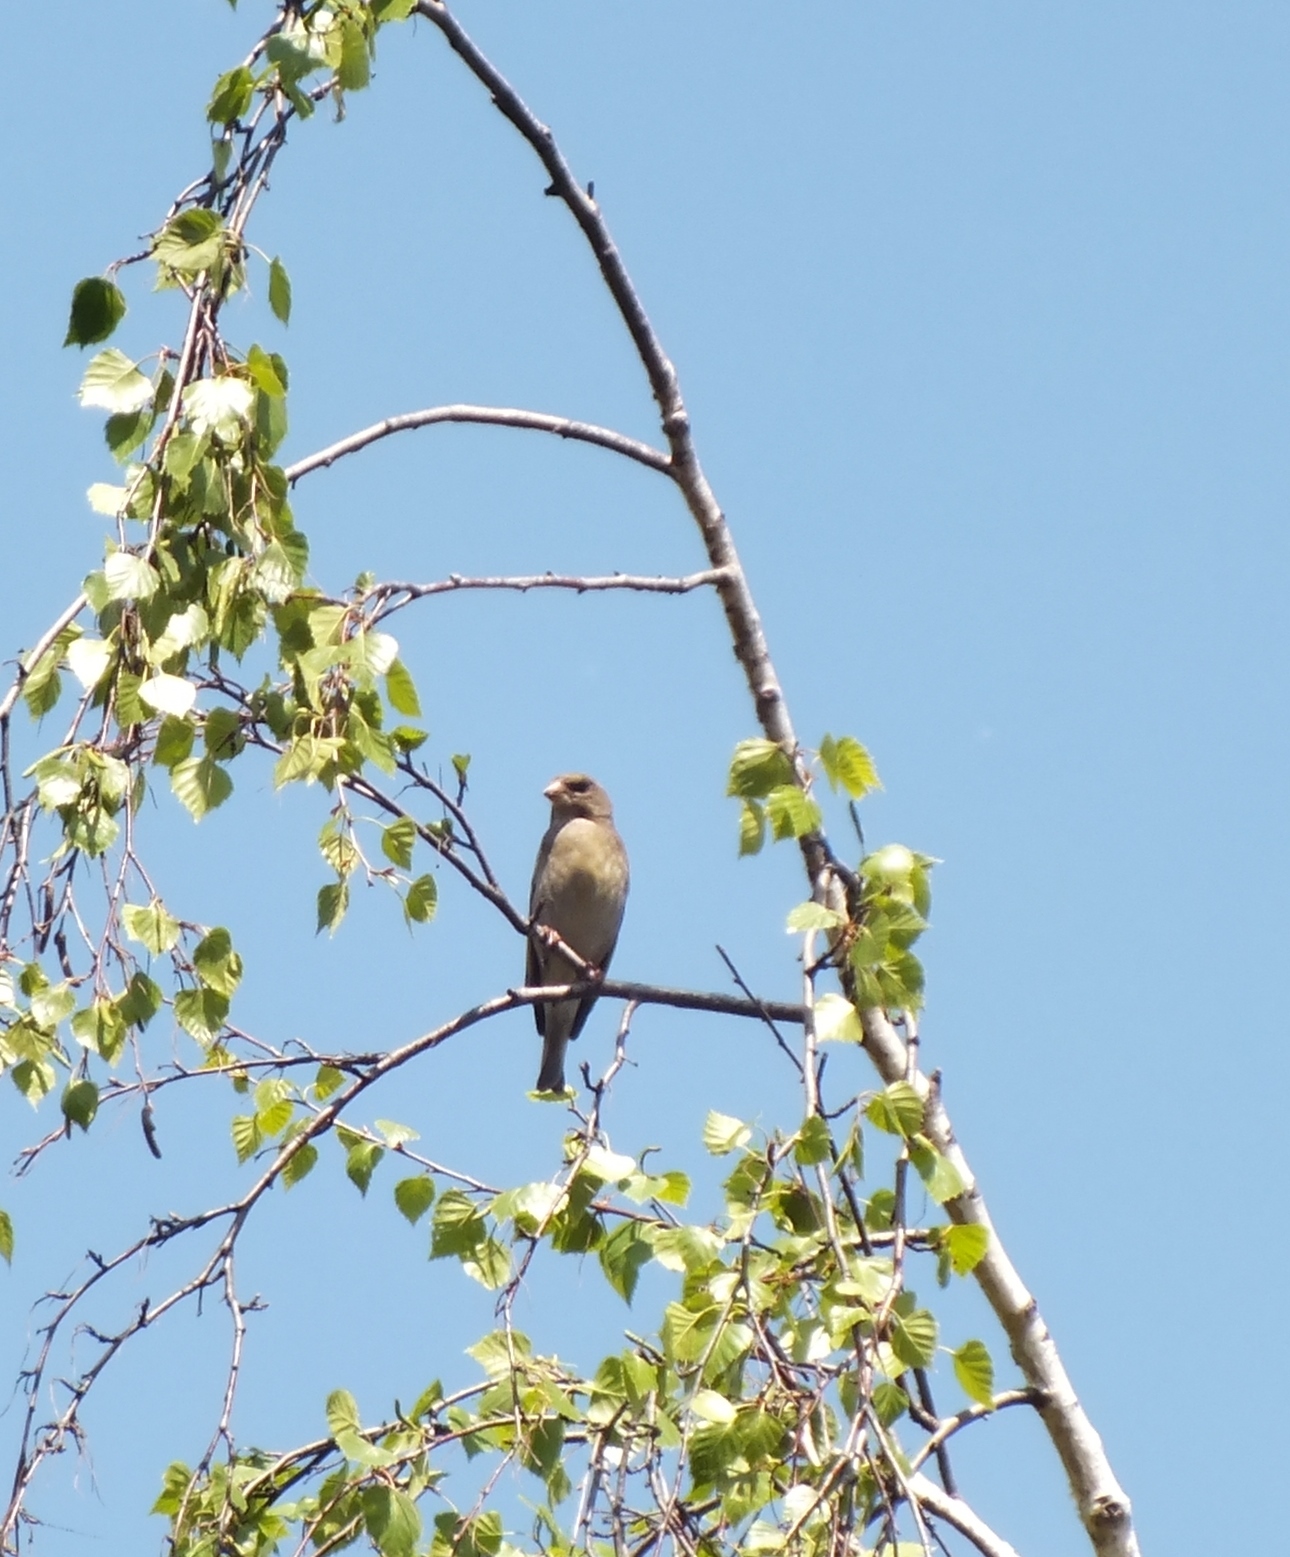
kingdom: Plantae
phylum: Tracheophyta
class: Liliopsida
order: Poales
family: Poaceae
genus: Chloris
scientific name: Chloris chloris
